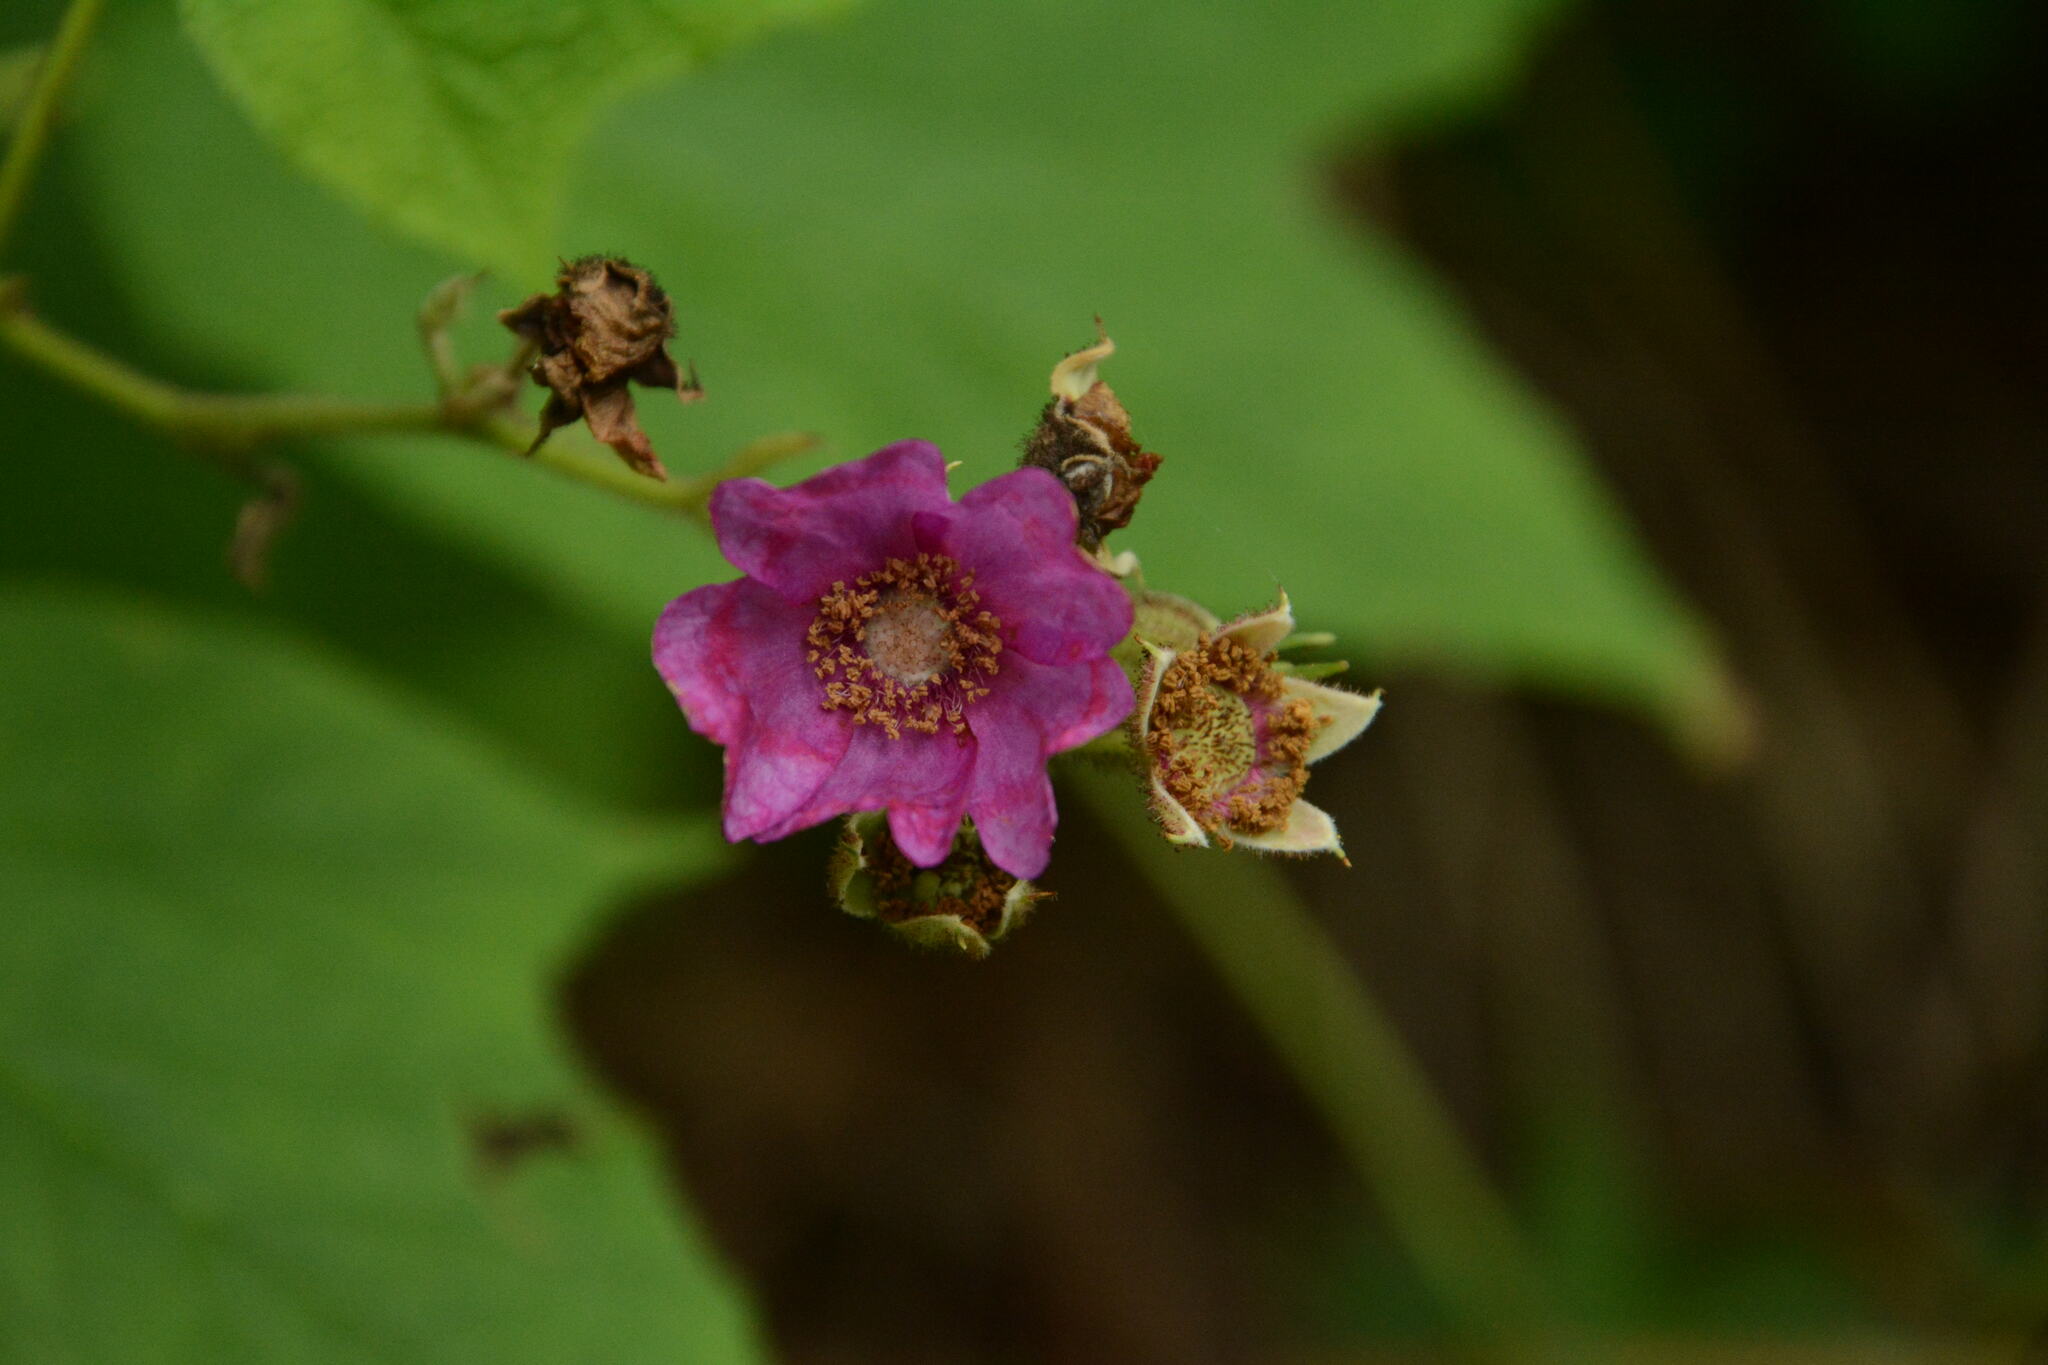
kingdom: Plantae
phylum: Tracheophyta
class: Magnoliopsida
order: Rosales
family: Rosaceae
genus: Rubus
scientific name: Rubus odoratus
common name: Purple-flowered raspberry
